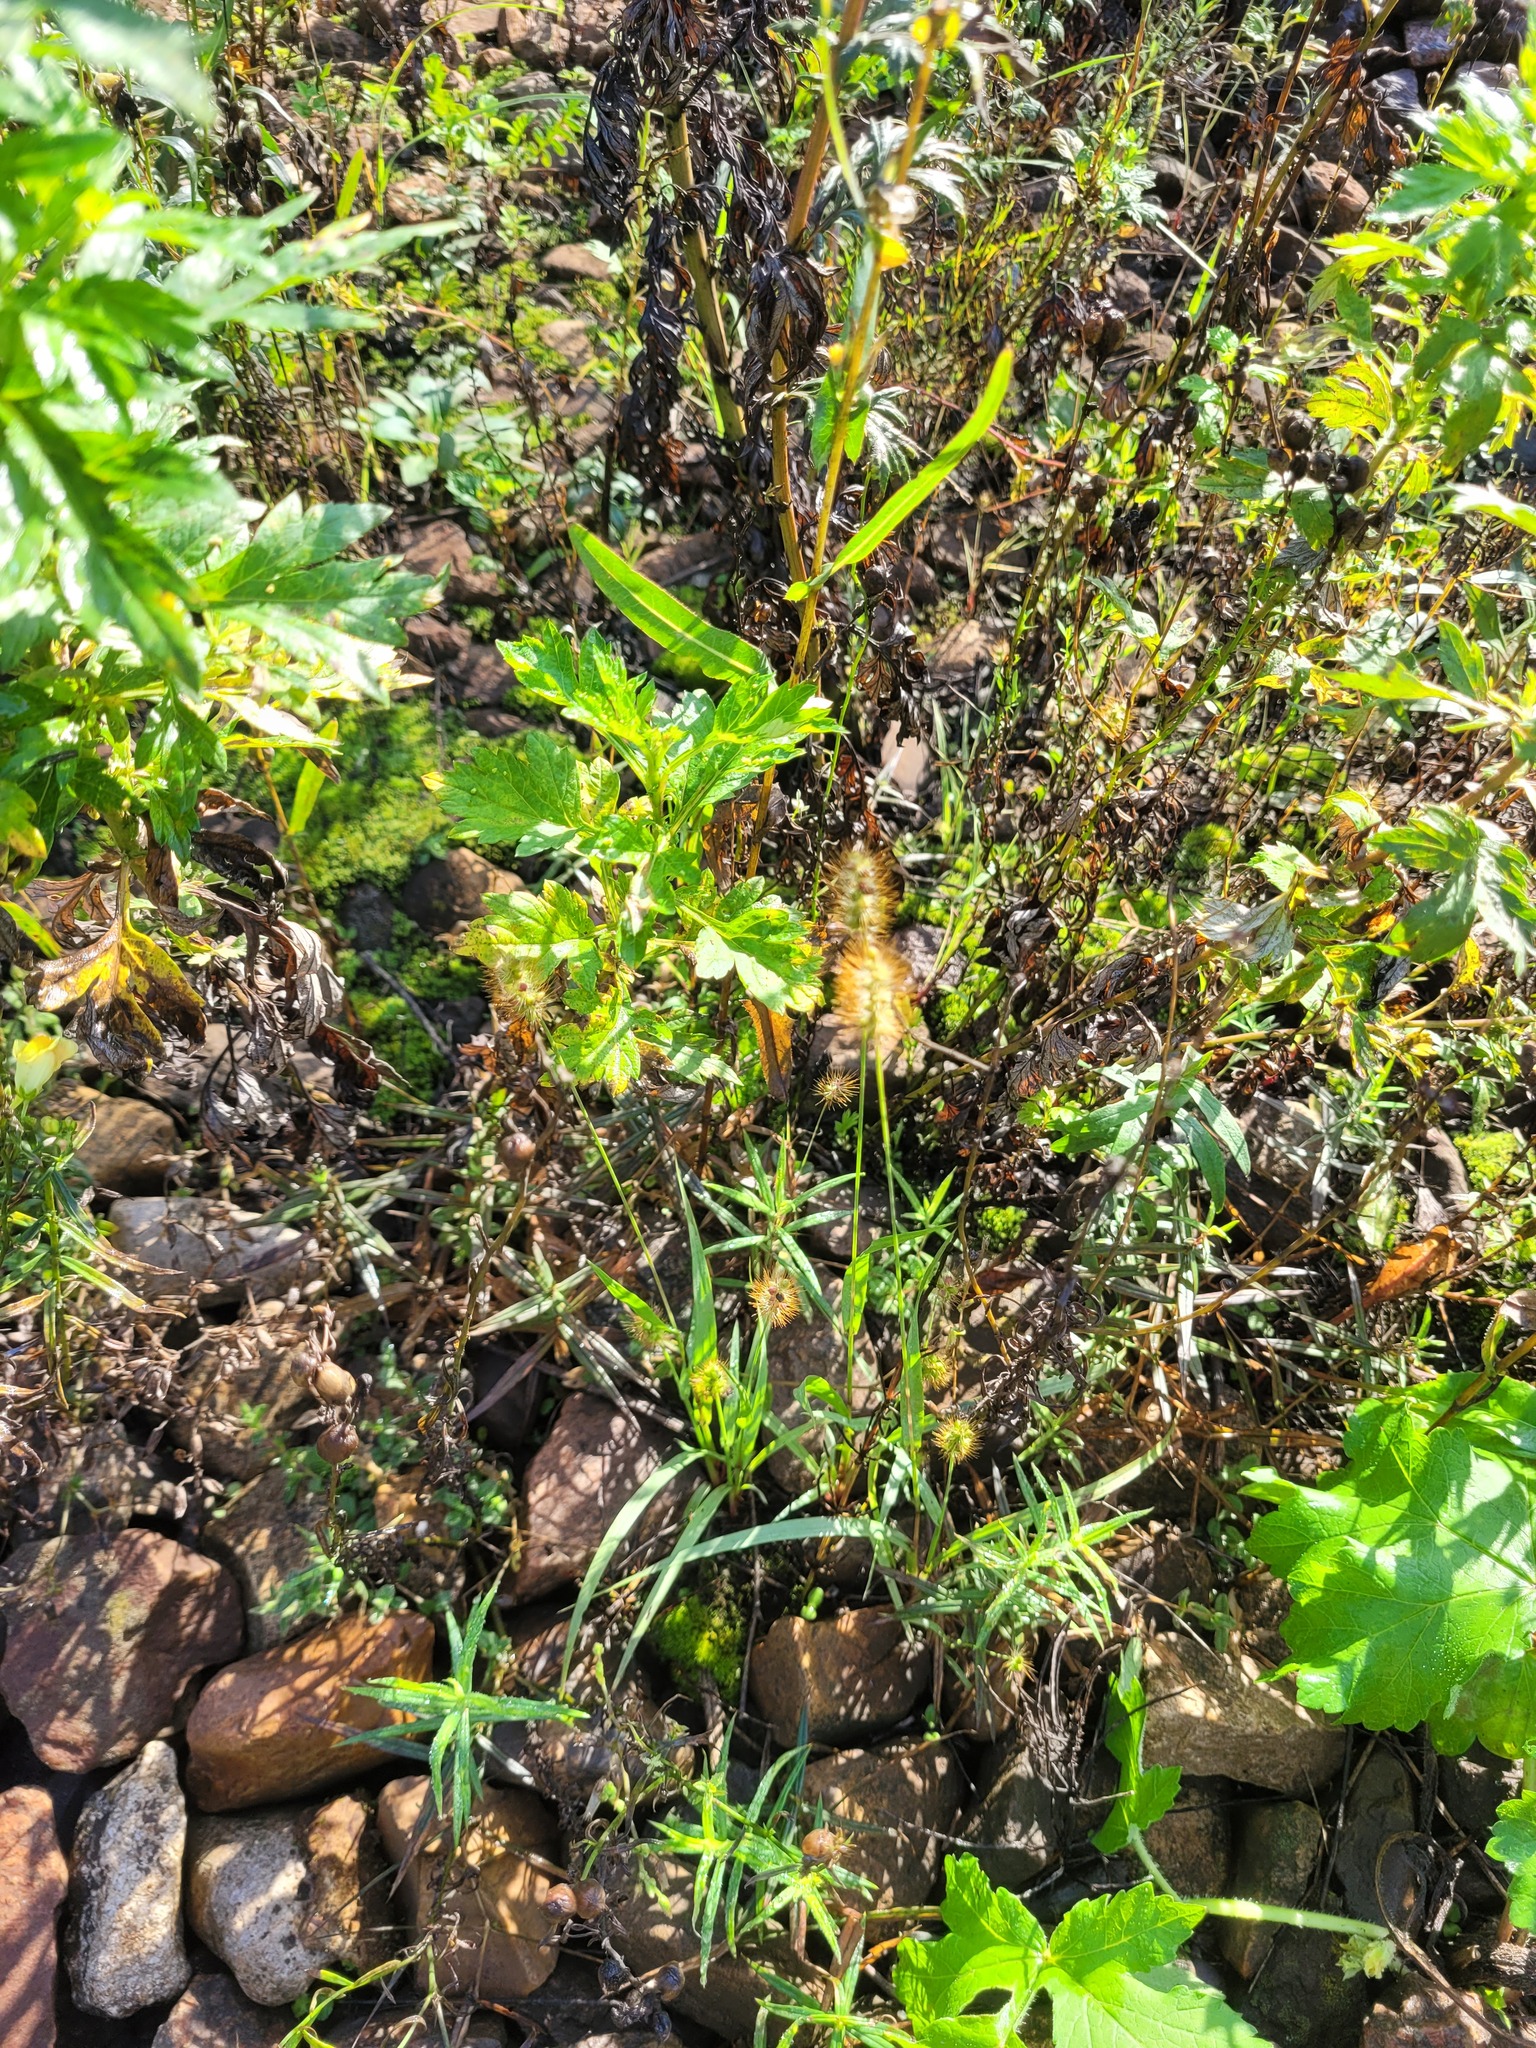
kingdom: Plantae
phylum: Tracheophyta
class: Liliopsida
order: Poales
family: Poaceae
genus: Setaria
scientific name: Setaria pumila
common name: Yellow bristle-grass
